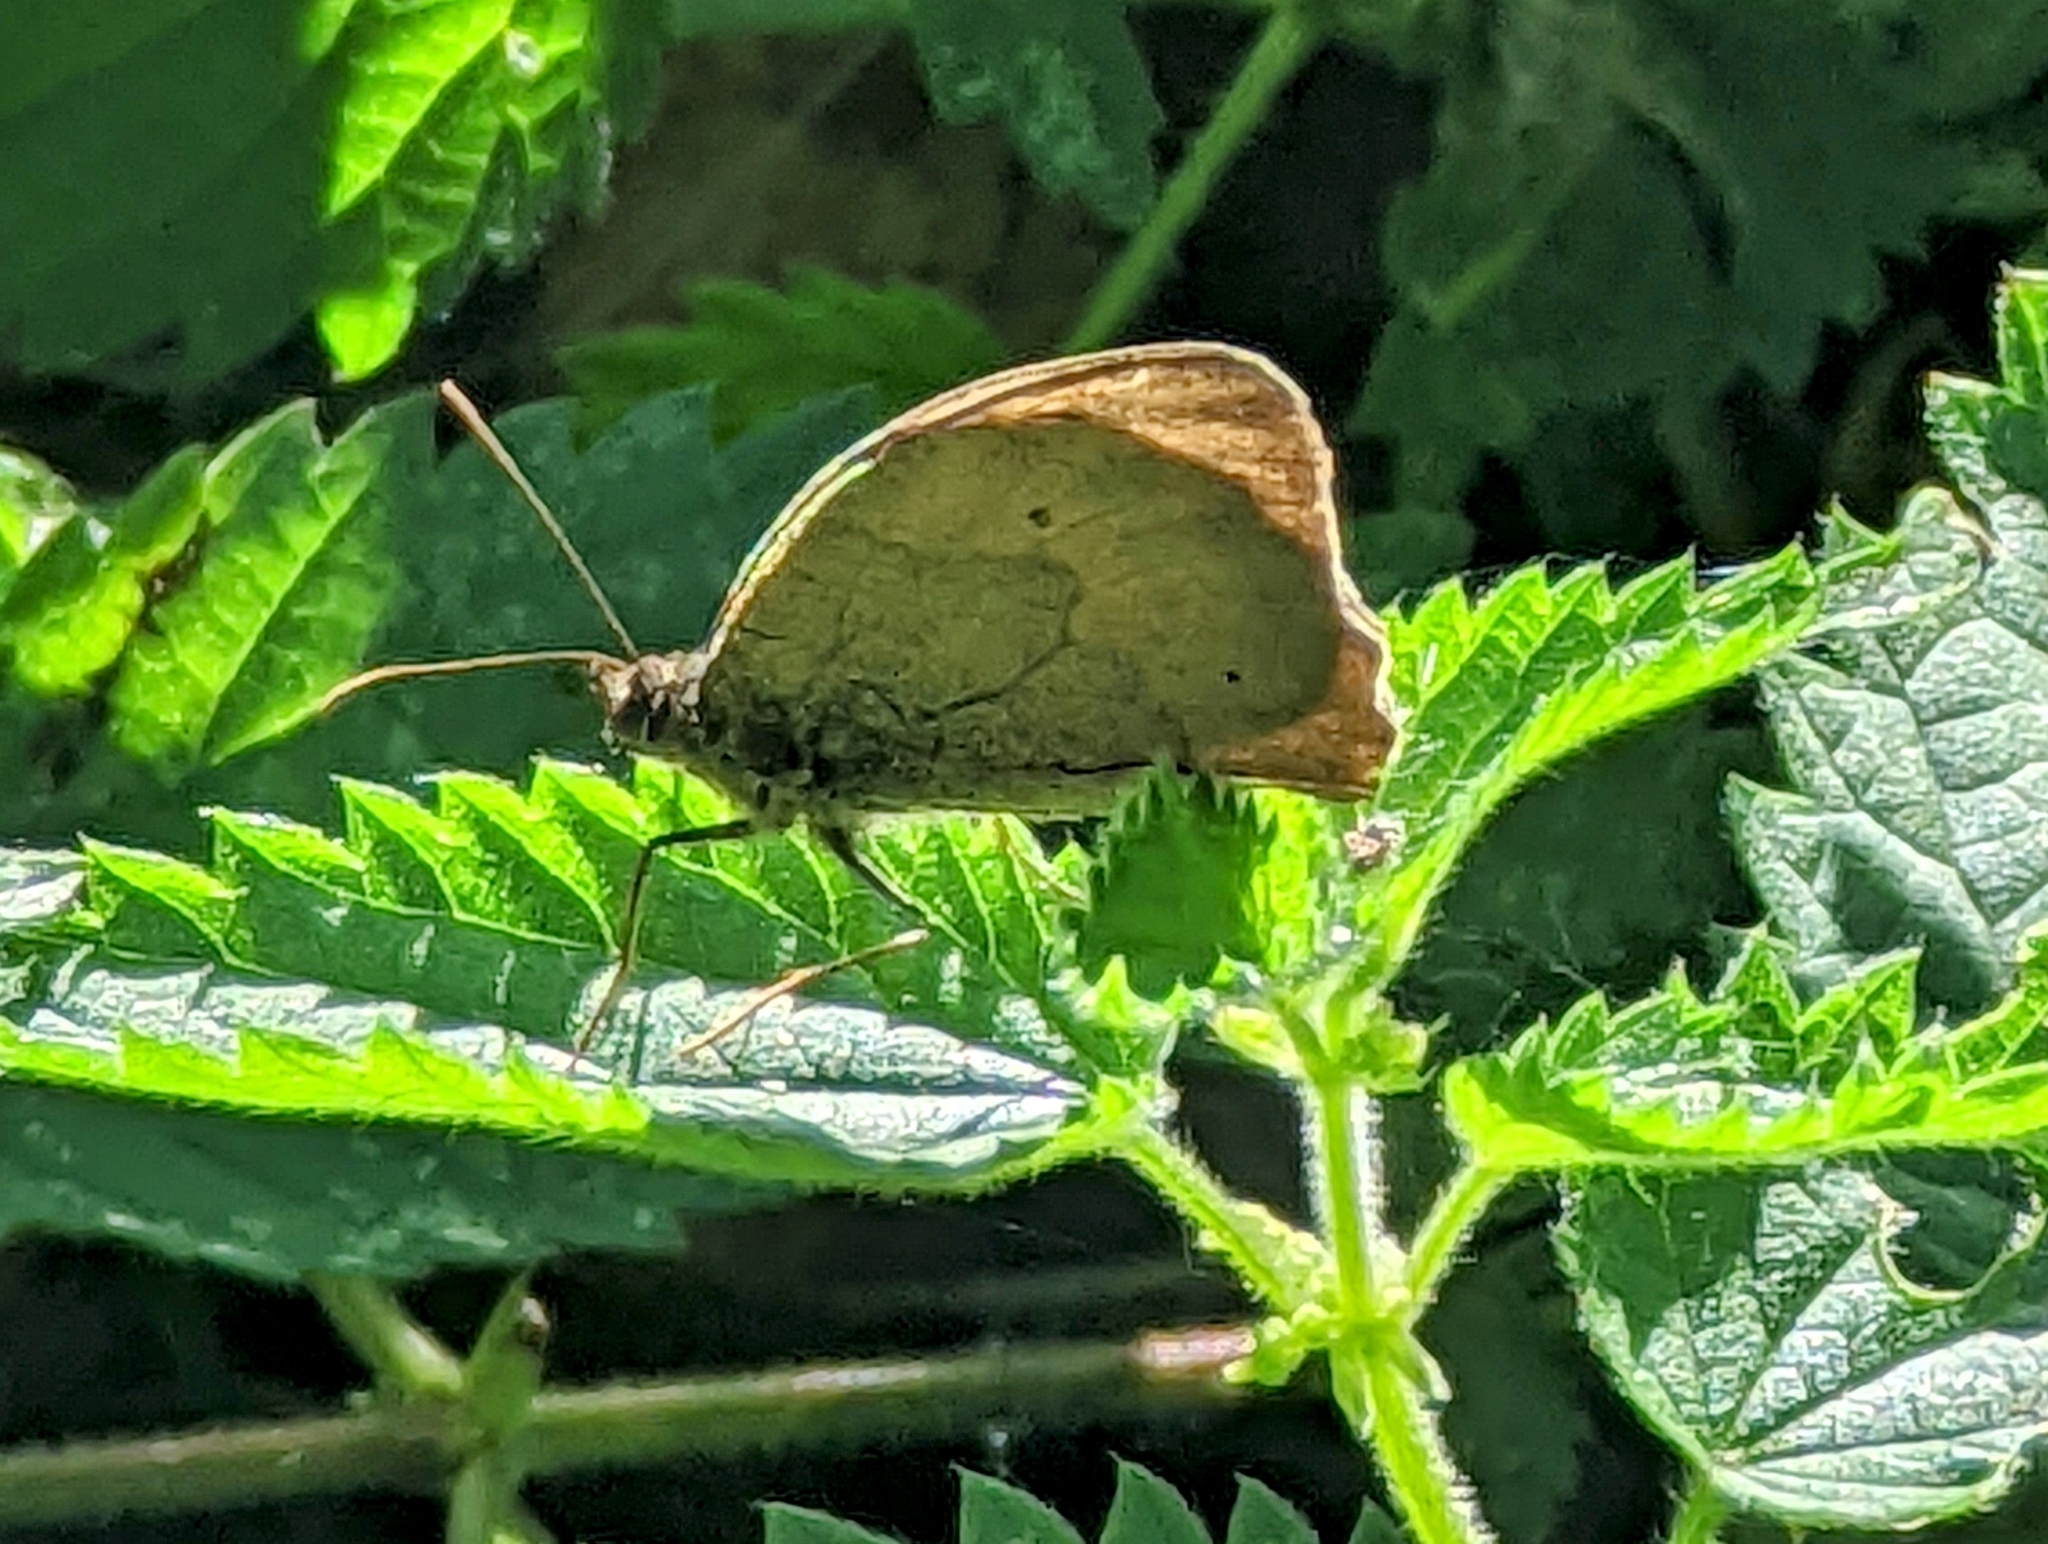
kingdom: Animalia
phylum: Arthropoda
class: Insecta
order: Lepidoptera
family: Nymphalidae
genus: Maniola
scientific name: Maniola jurtina
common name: Meadow brown
